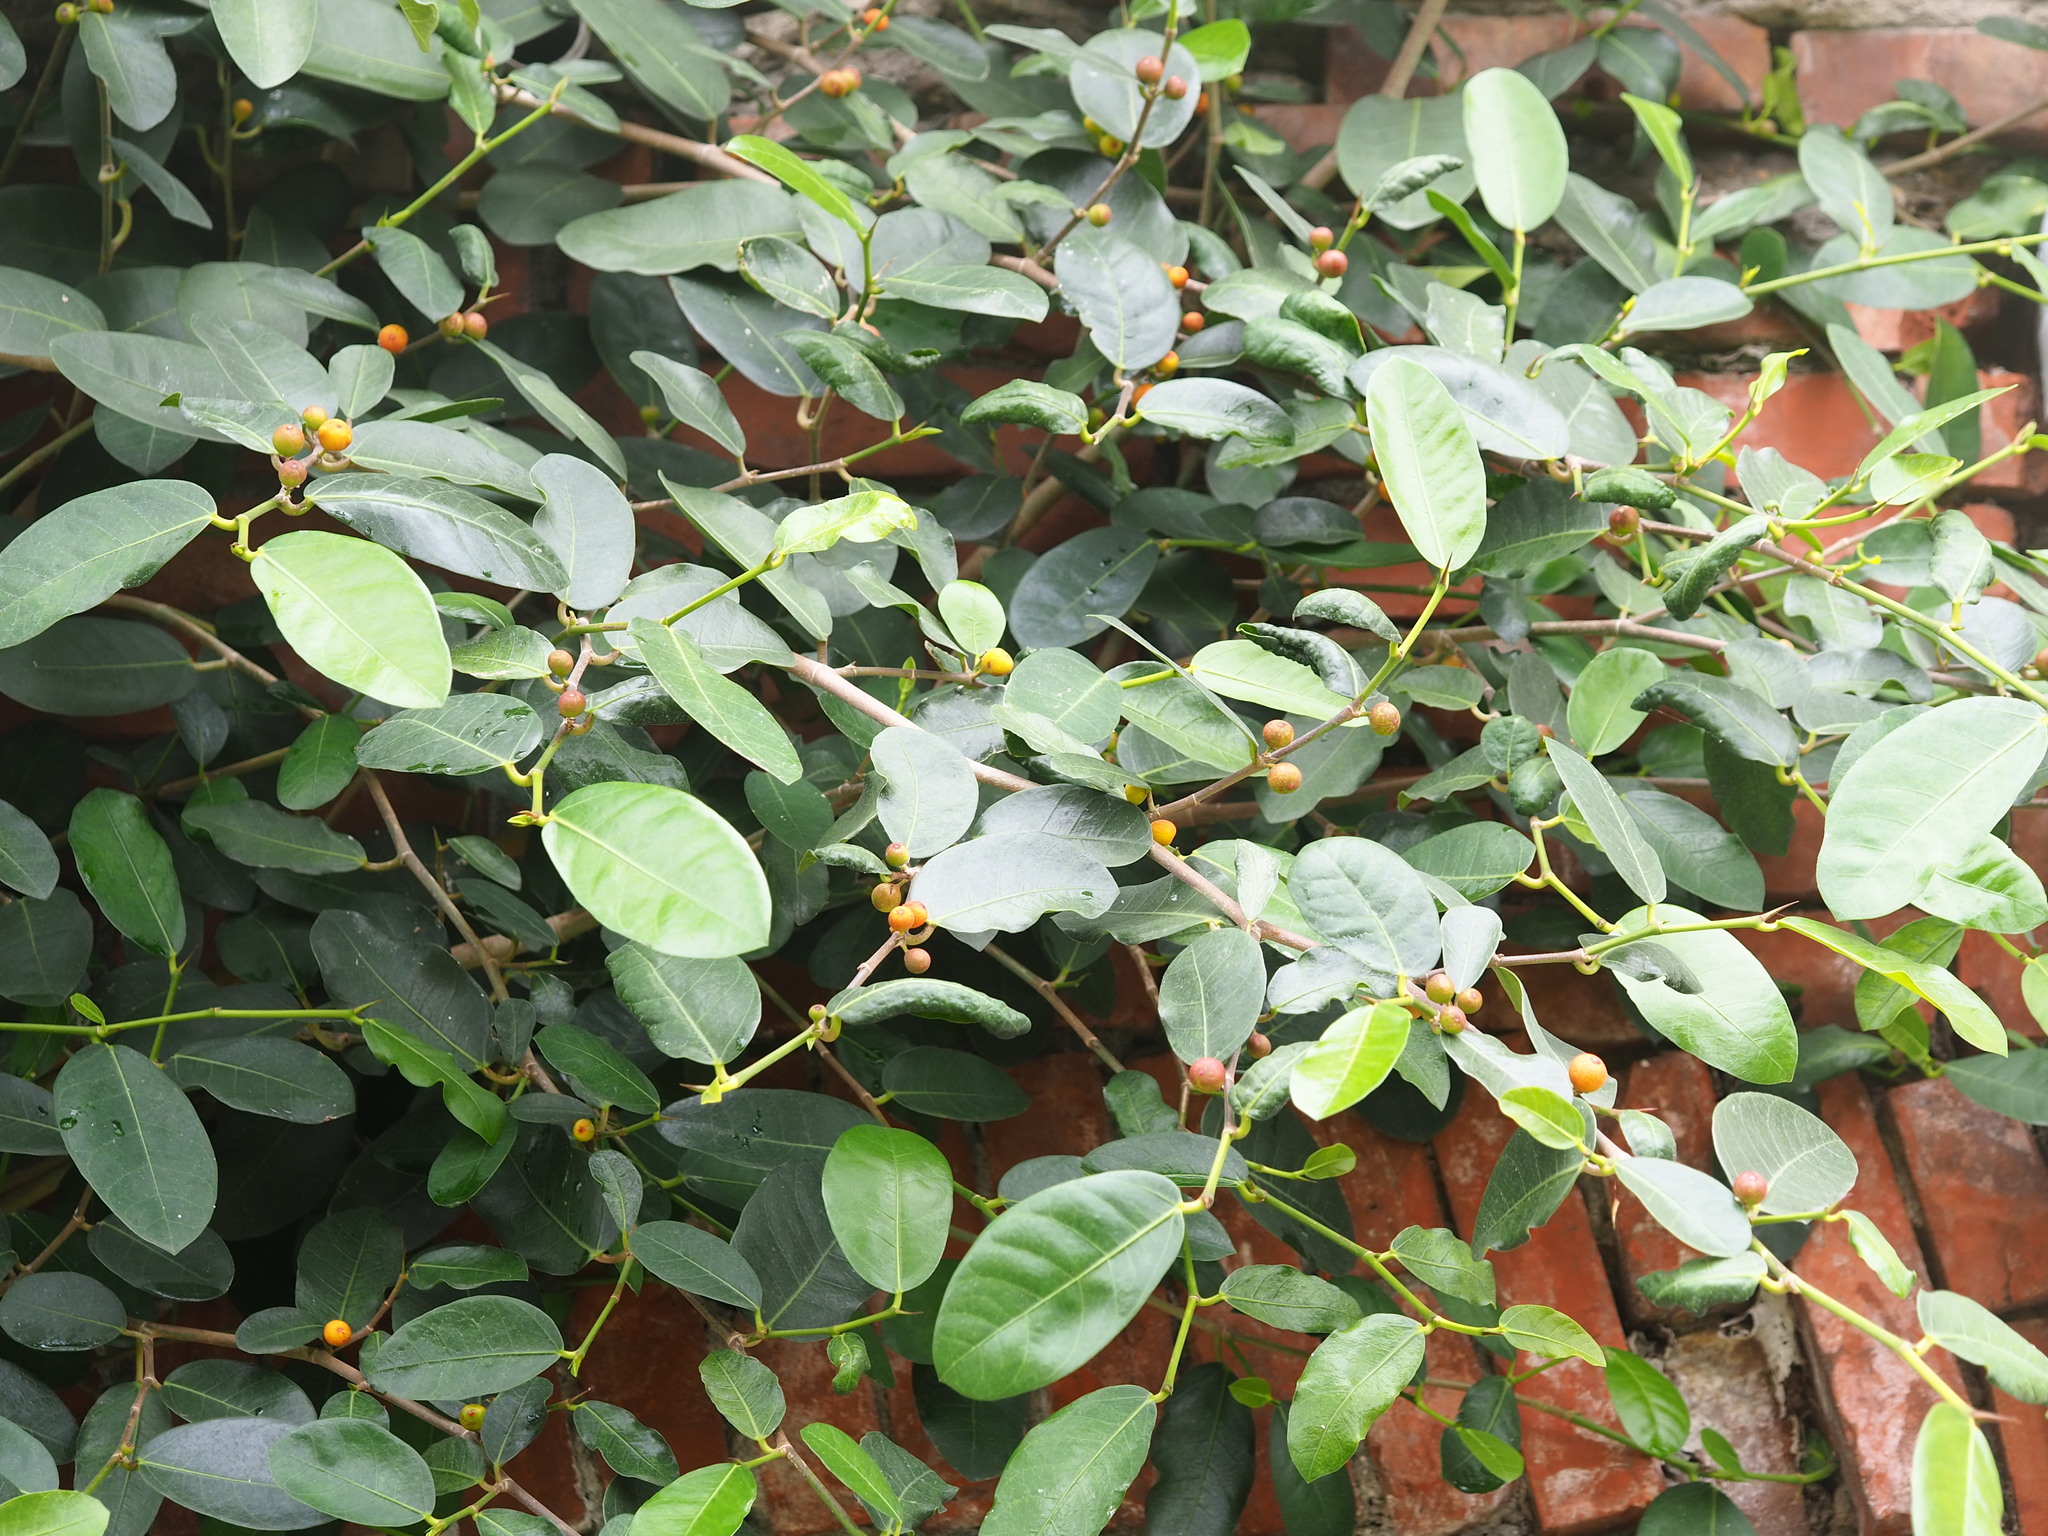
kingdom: Plantae
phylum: Tracheophyta
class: Magnoliopsida
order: Rosales
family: Moraceae
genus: Ficus
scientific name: Ficus tinctoria
